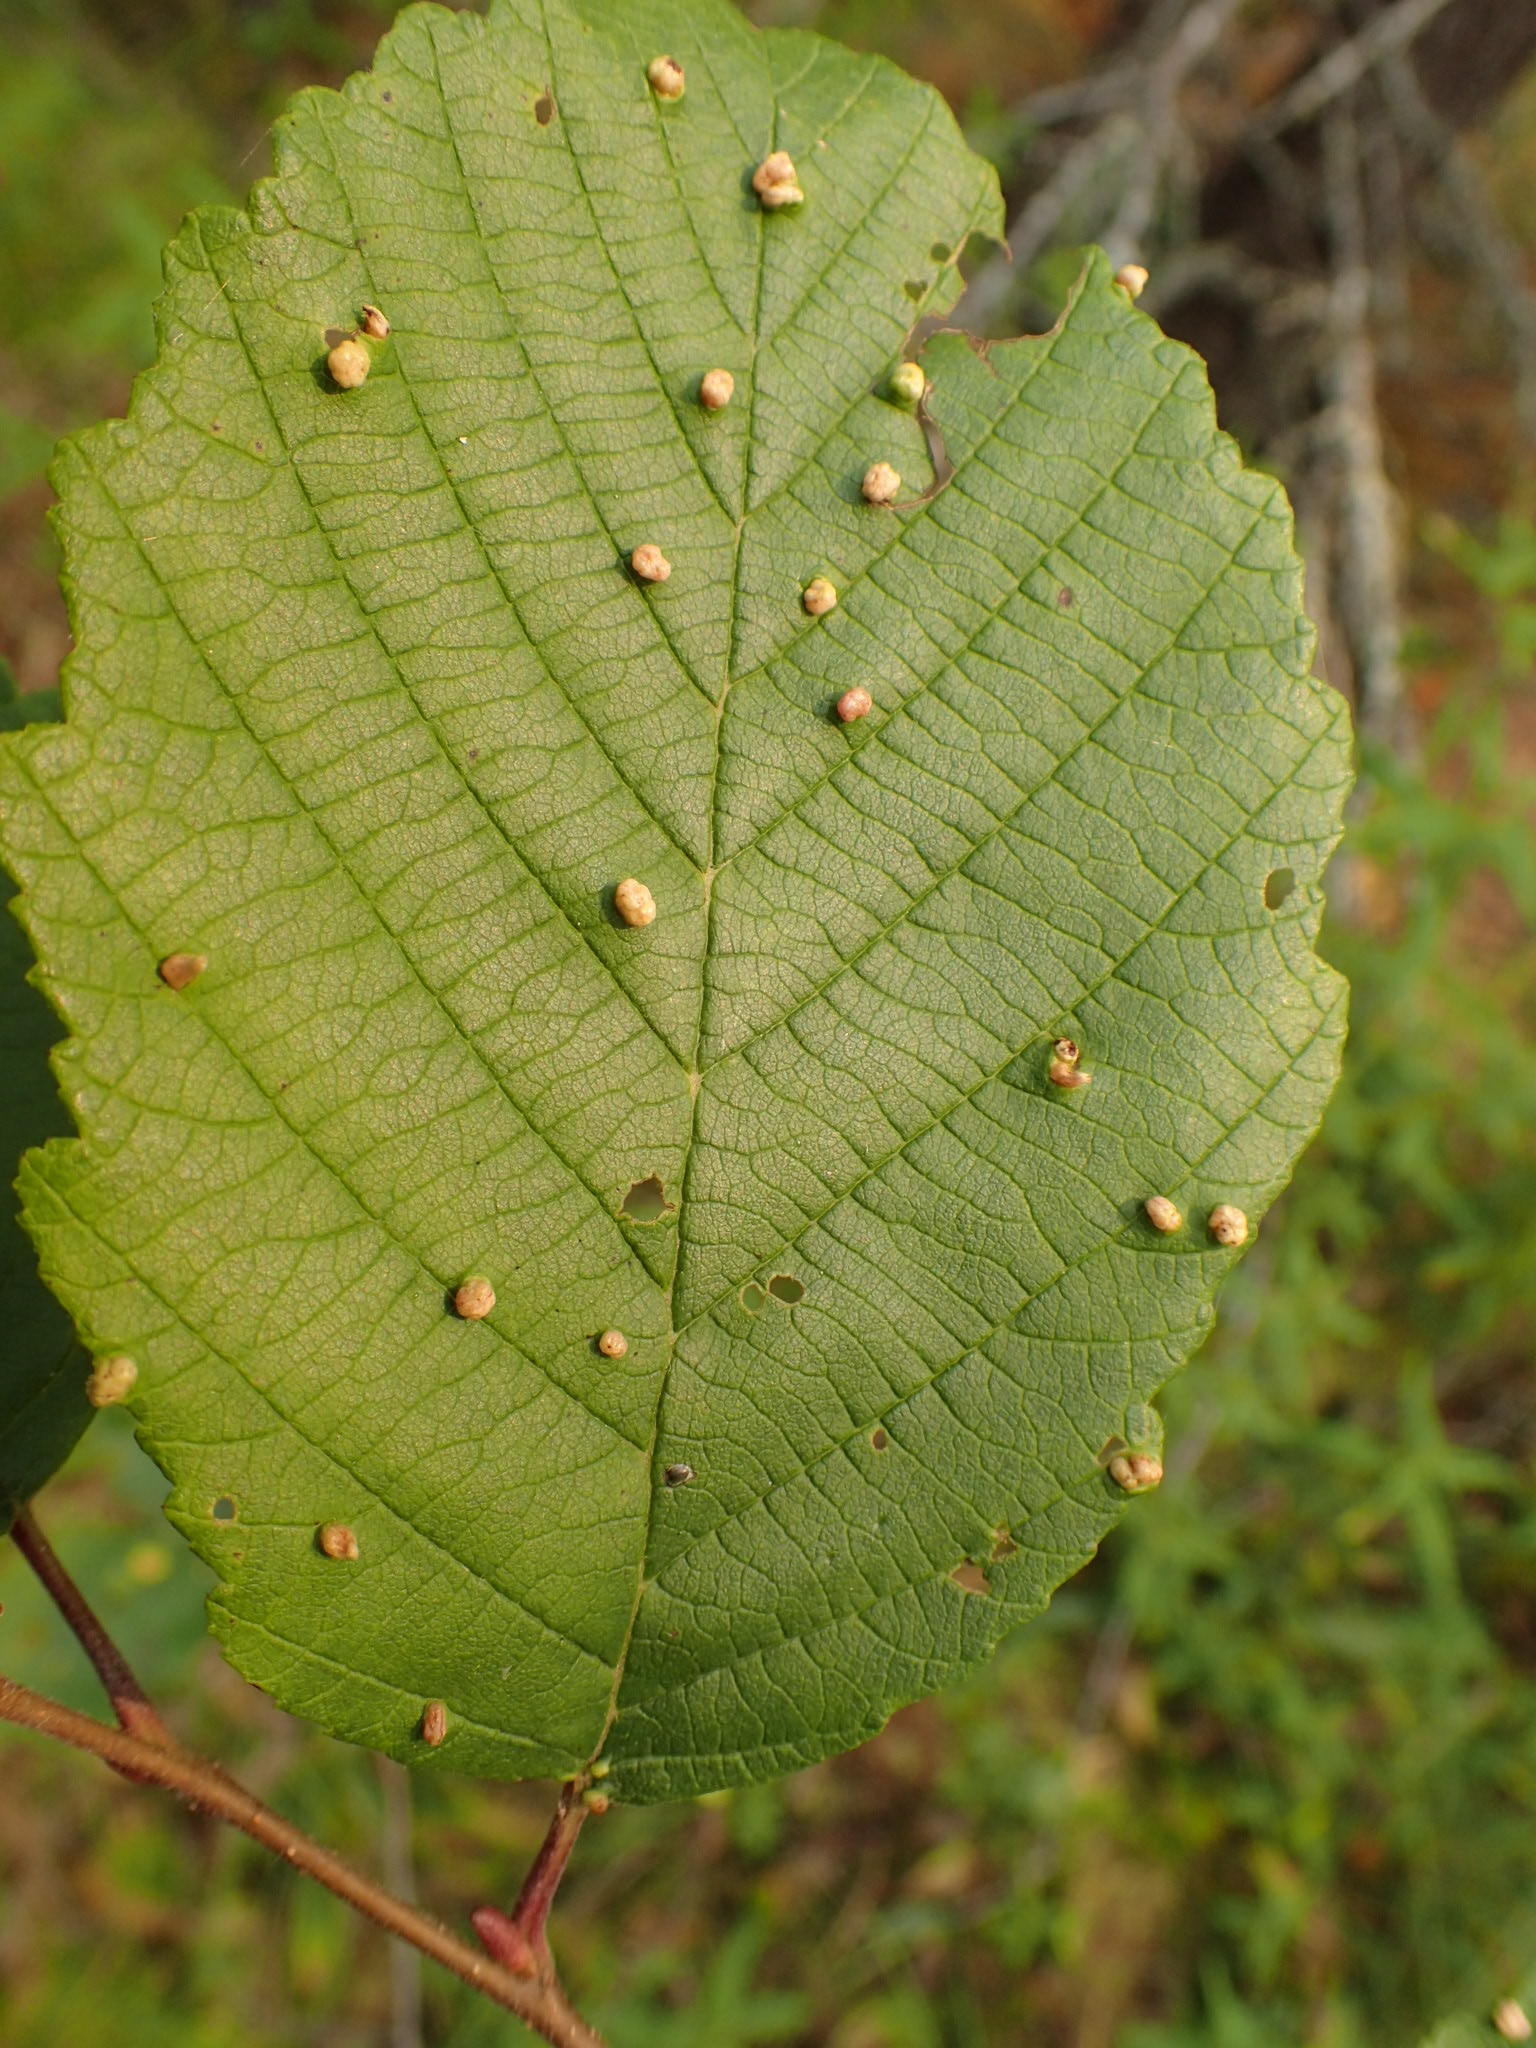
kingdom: Animalia
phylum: Arthropoda
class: Arachnida
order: Trombidiformes
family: Eriophyidae
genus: Eriophyes
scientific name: Eriophyes laevis
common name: Alder leaf gall mite
